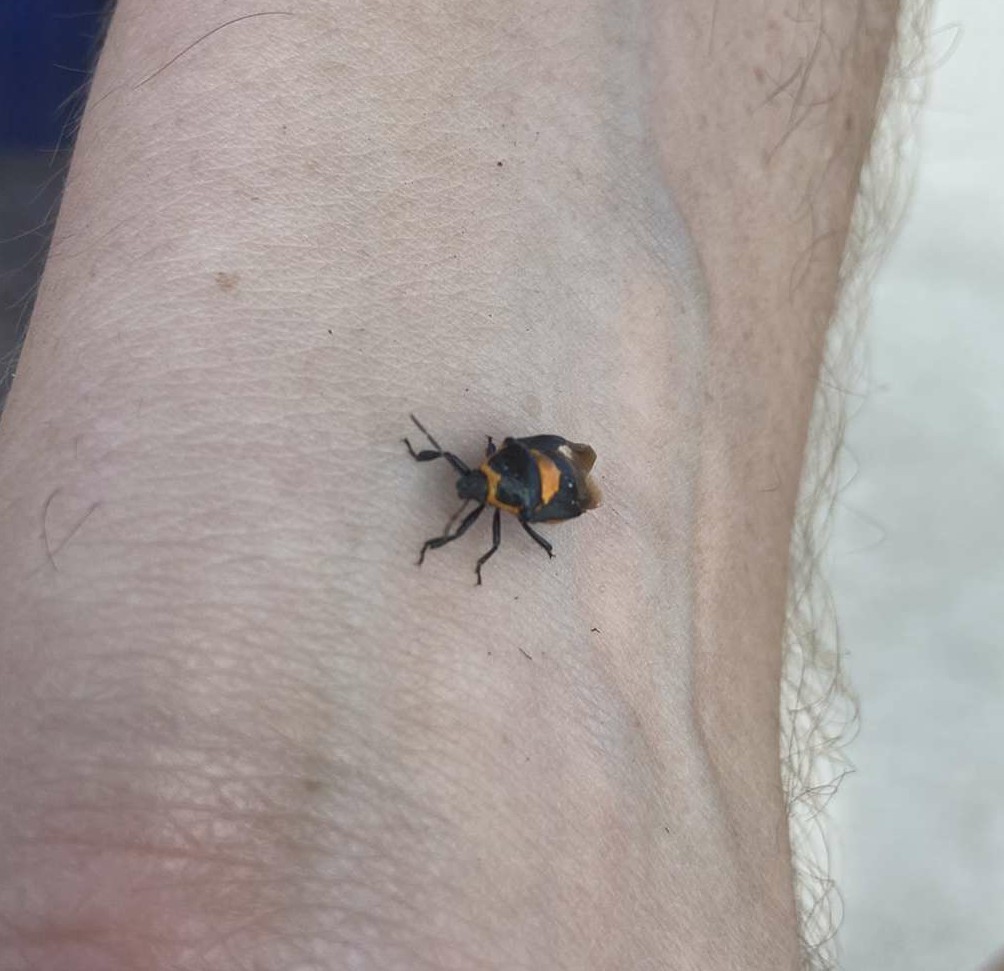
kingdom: Animalia
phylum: Arthropoda
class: Insecta
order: Hemiptera
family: Pentatomidae
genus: Stiretrus
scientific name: Stiretrus anchorago
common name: Anchor stink bug
